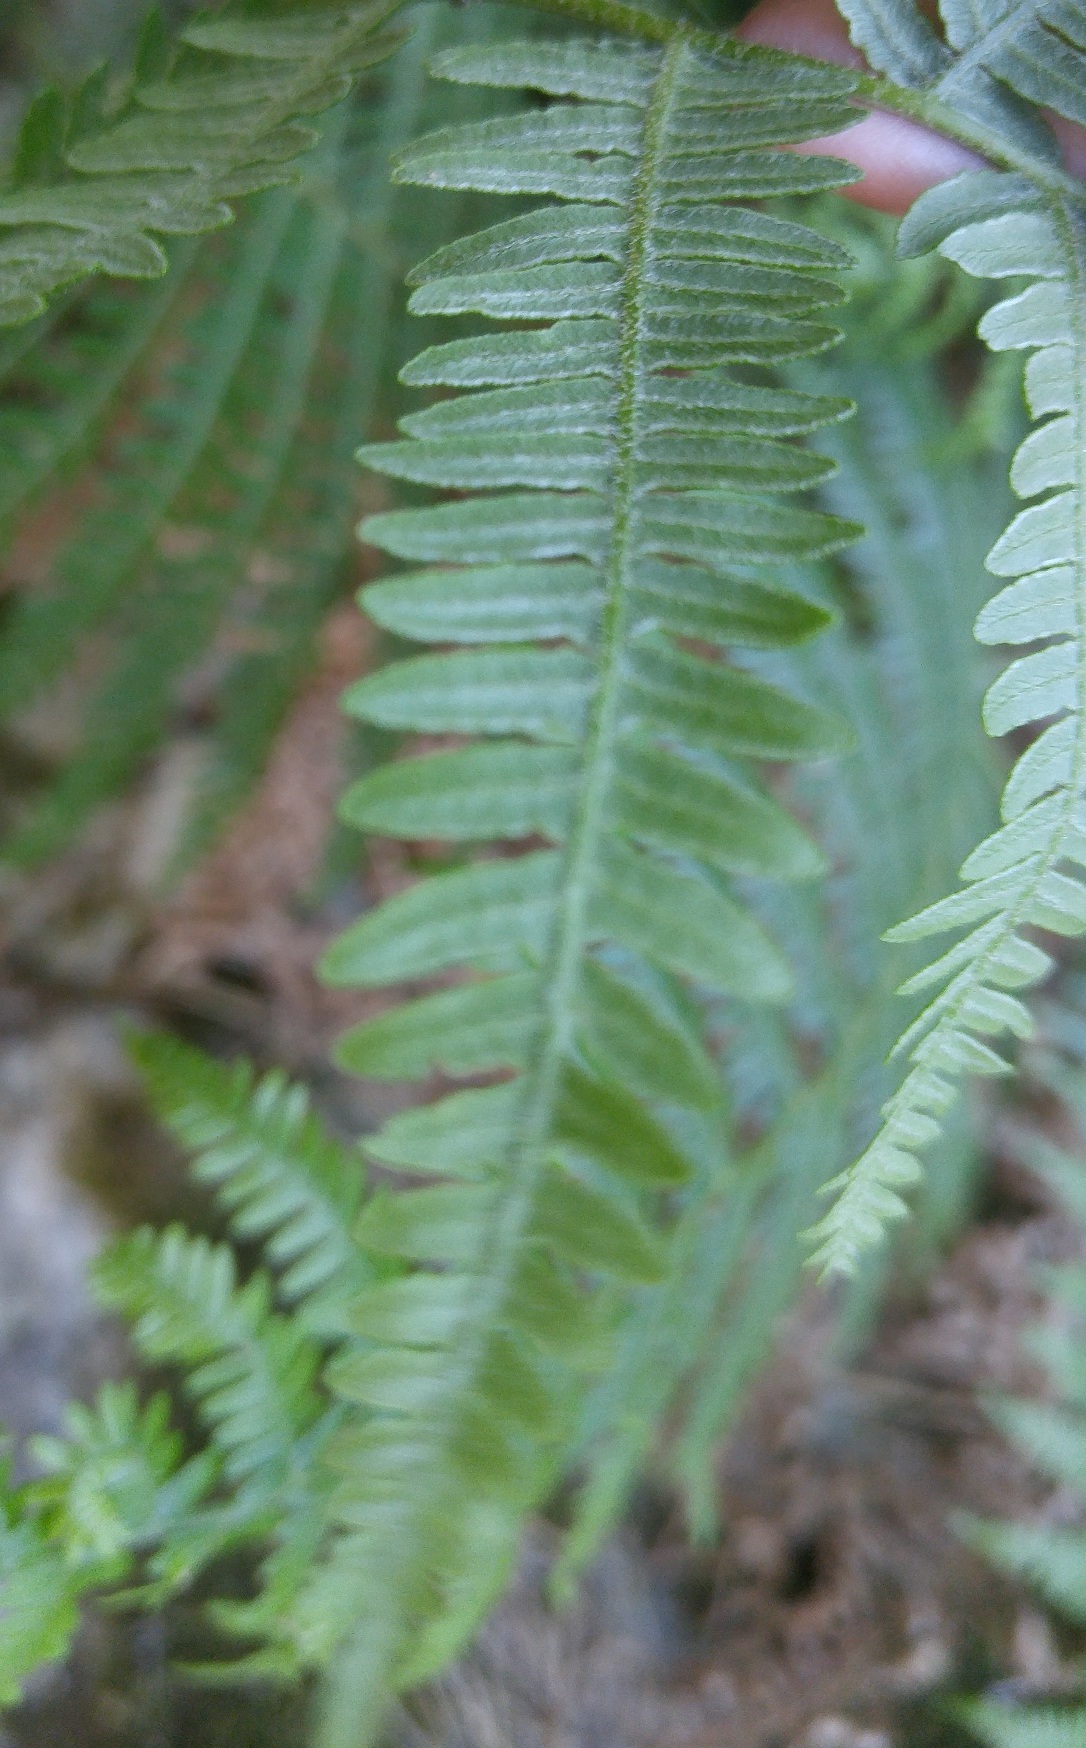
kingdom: Plantae
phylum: Tracheophyta
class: Polypodiopsida
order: Polypodiales
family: Dennstaedtiaceae
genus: Pteridium
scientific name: Pteridium aquilinum
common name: Bracken
